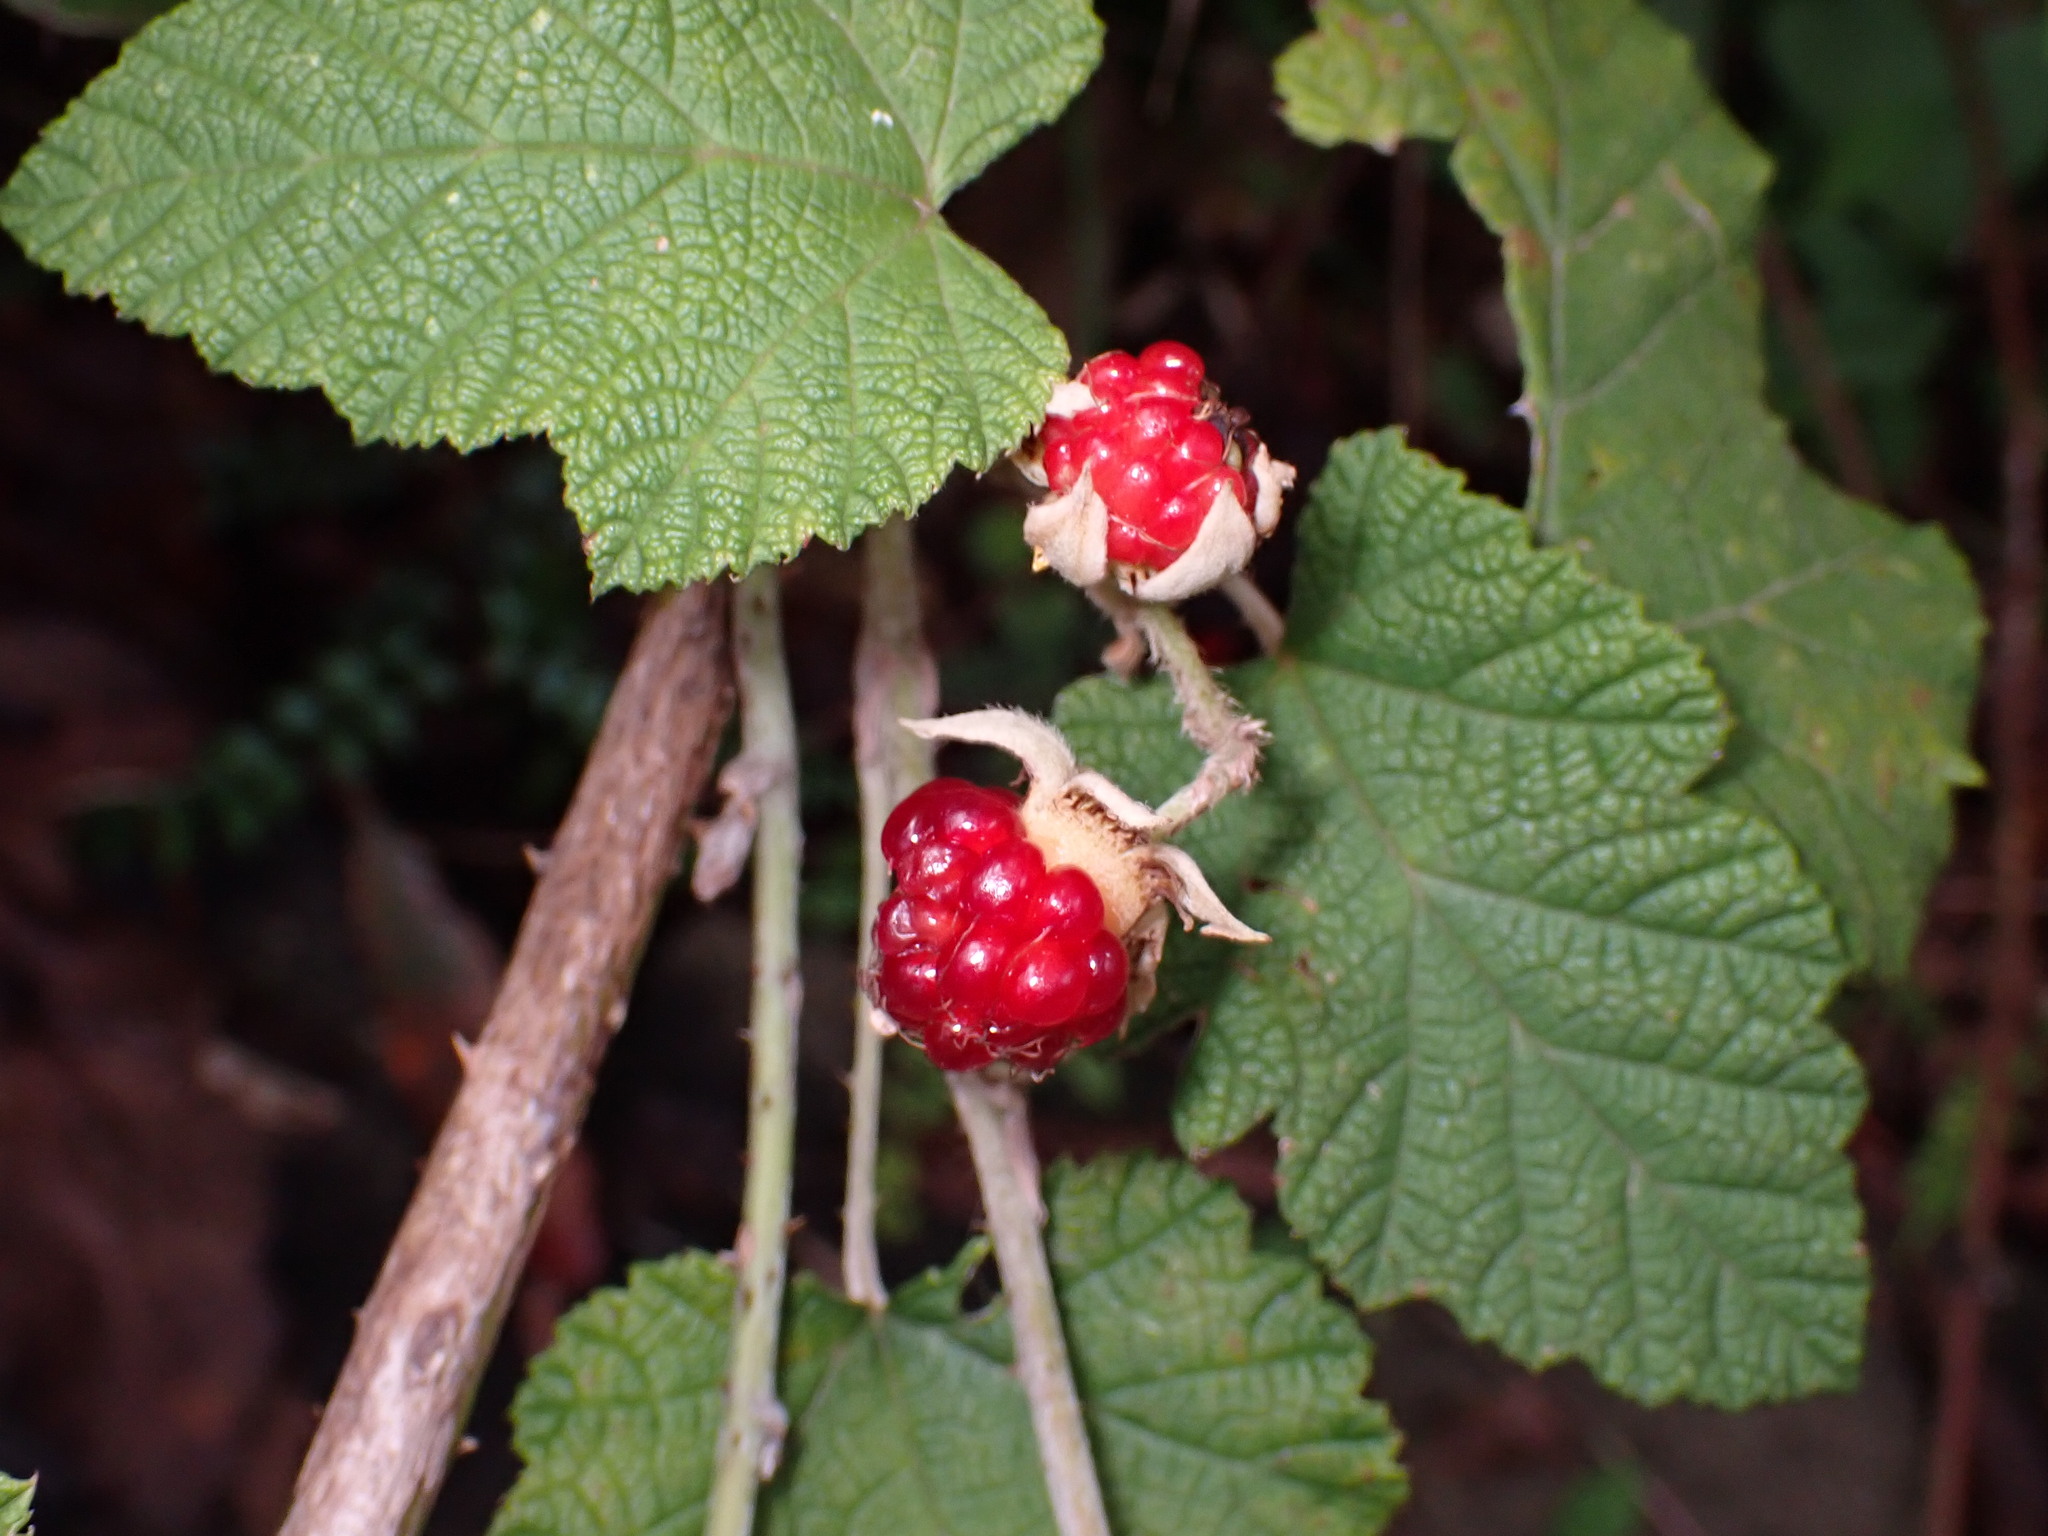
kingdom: Plantae
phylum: Tracheophyta
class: Magnoliopsida
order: Rosales
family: Rosaceae
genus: Rubus
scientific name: Rubus moluccanus
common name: Wild raspberry
